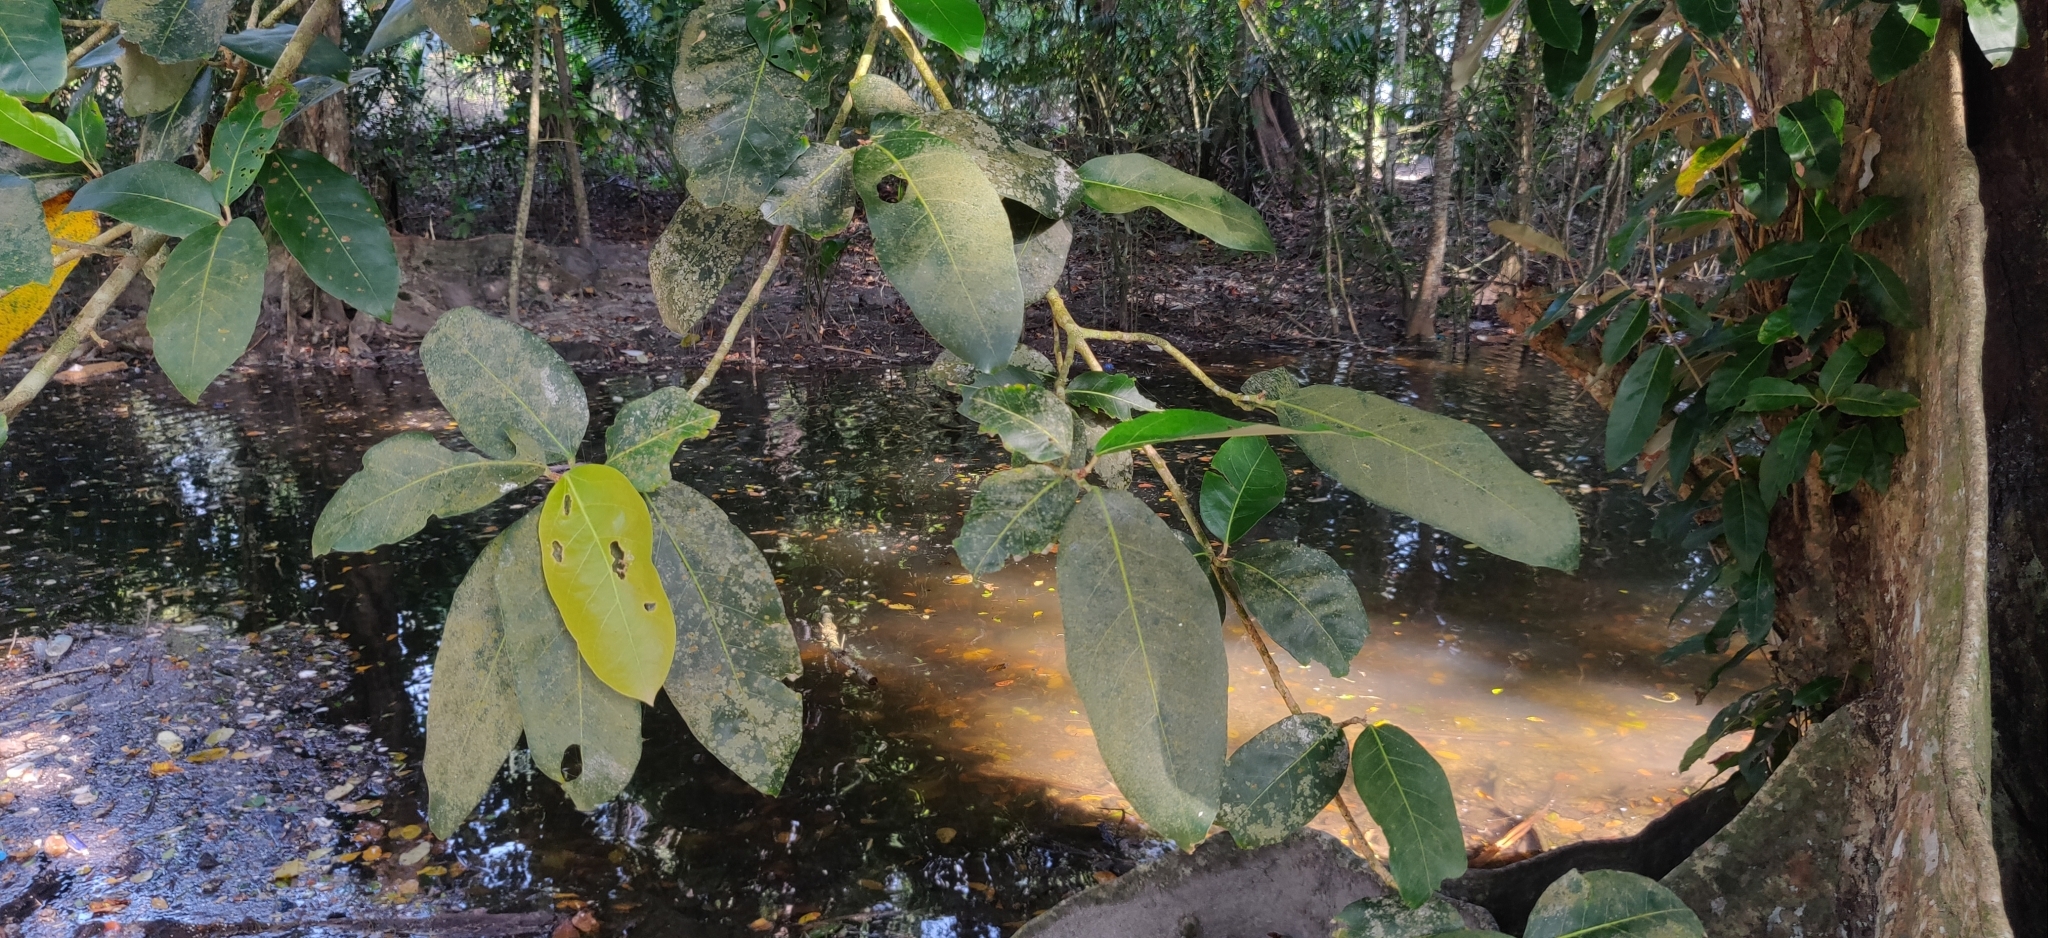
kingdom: Plantae
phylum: Tracheophyta
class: Magnoliopsida
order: Malvales
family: Malvaceae
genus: Heritiera
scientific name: Heritiera littoralis
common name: Looking-glass mangrove
